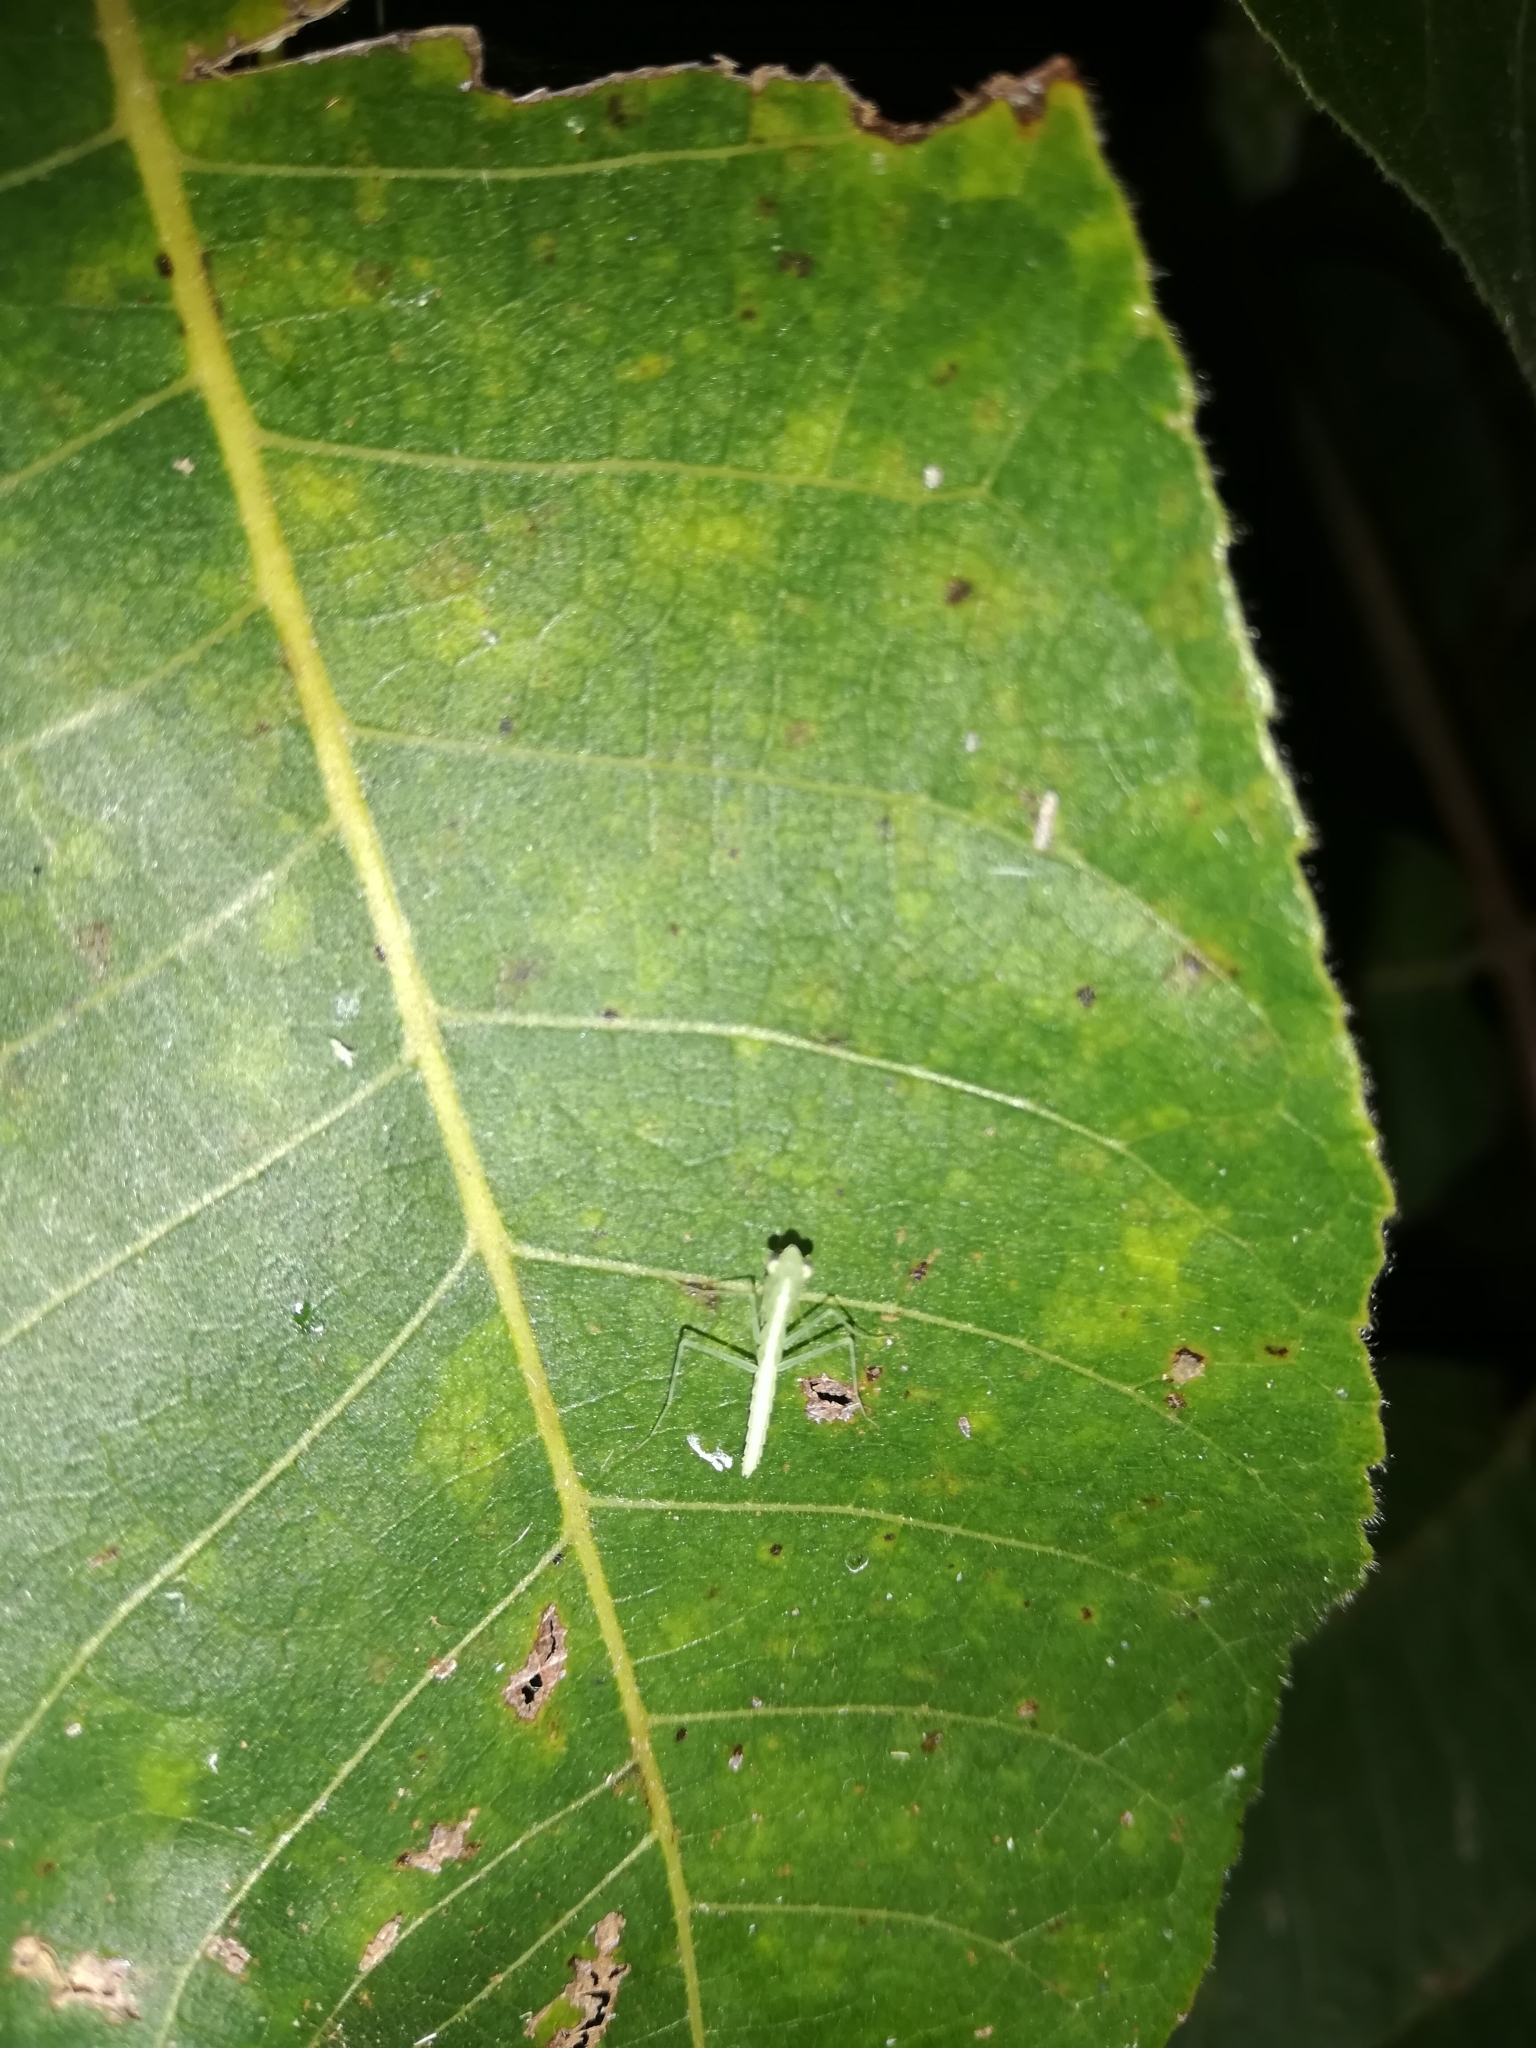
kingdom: Animalia
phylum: Arthropoda
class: Insecta
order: Mantodea
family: Nanomantidae
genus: Neomantis
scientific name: Neomantis australis
